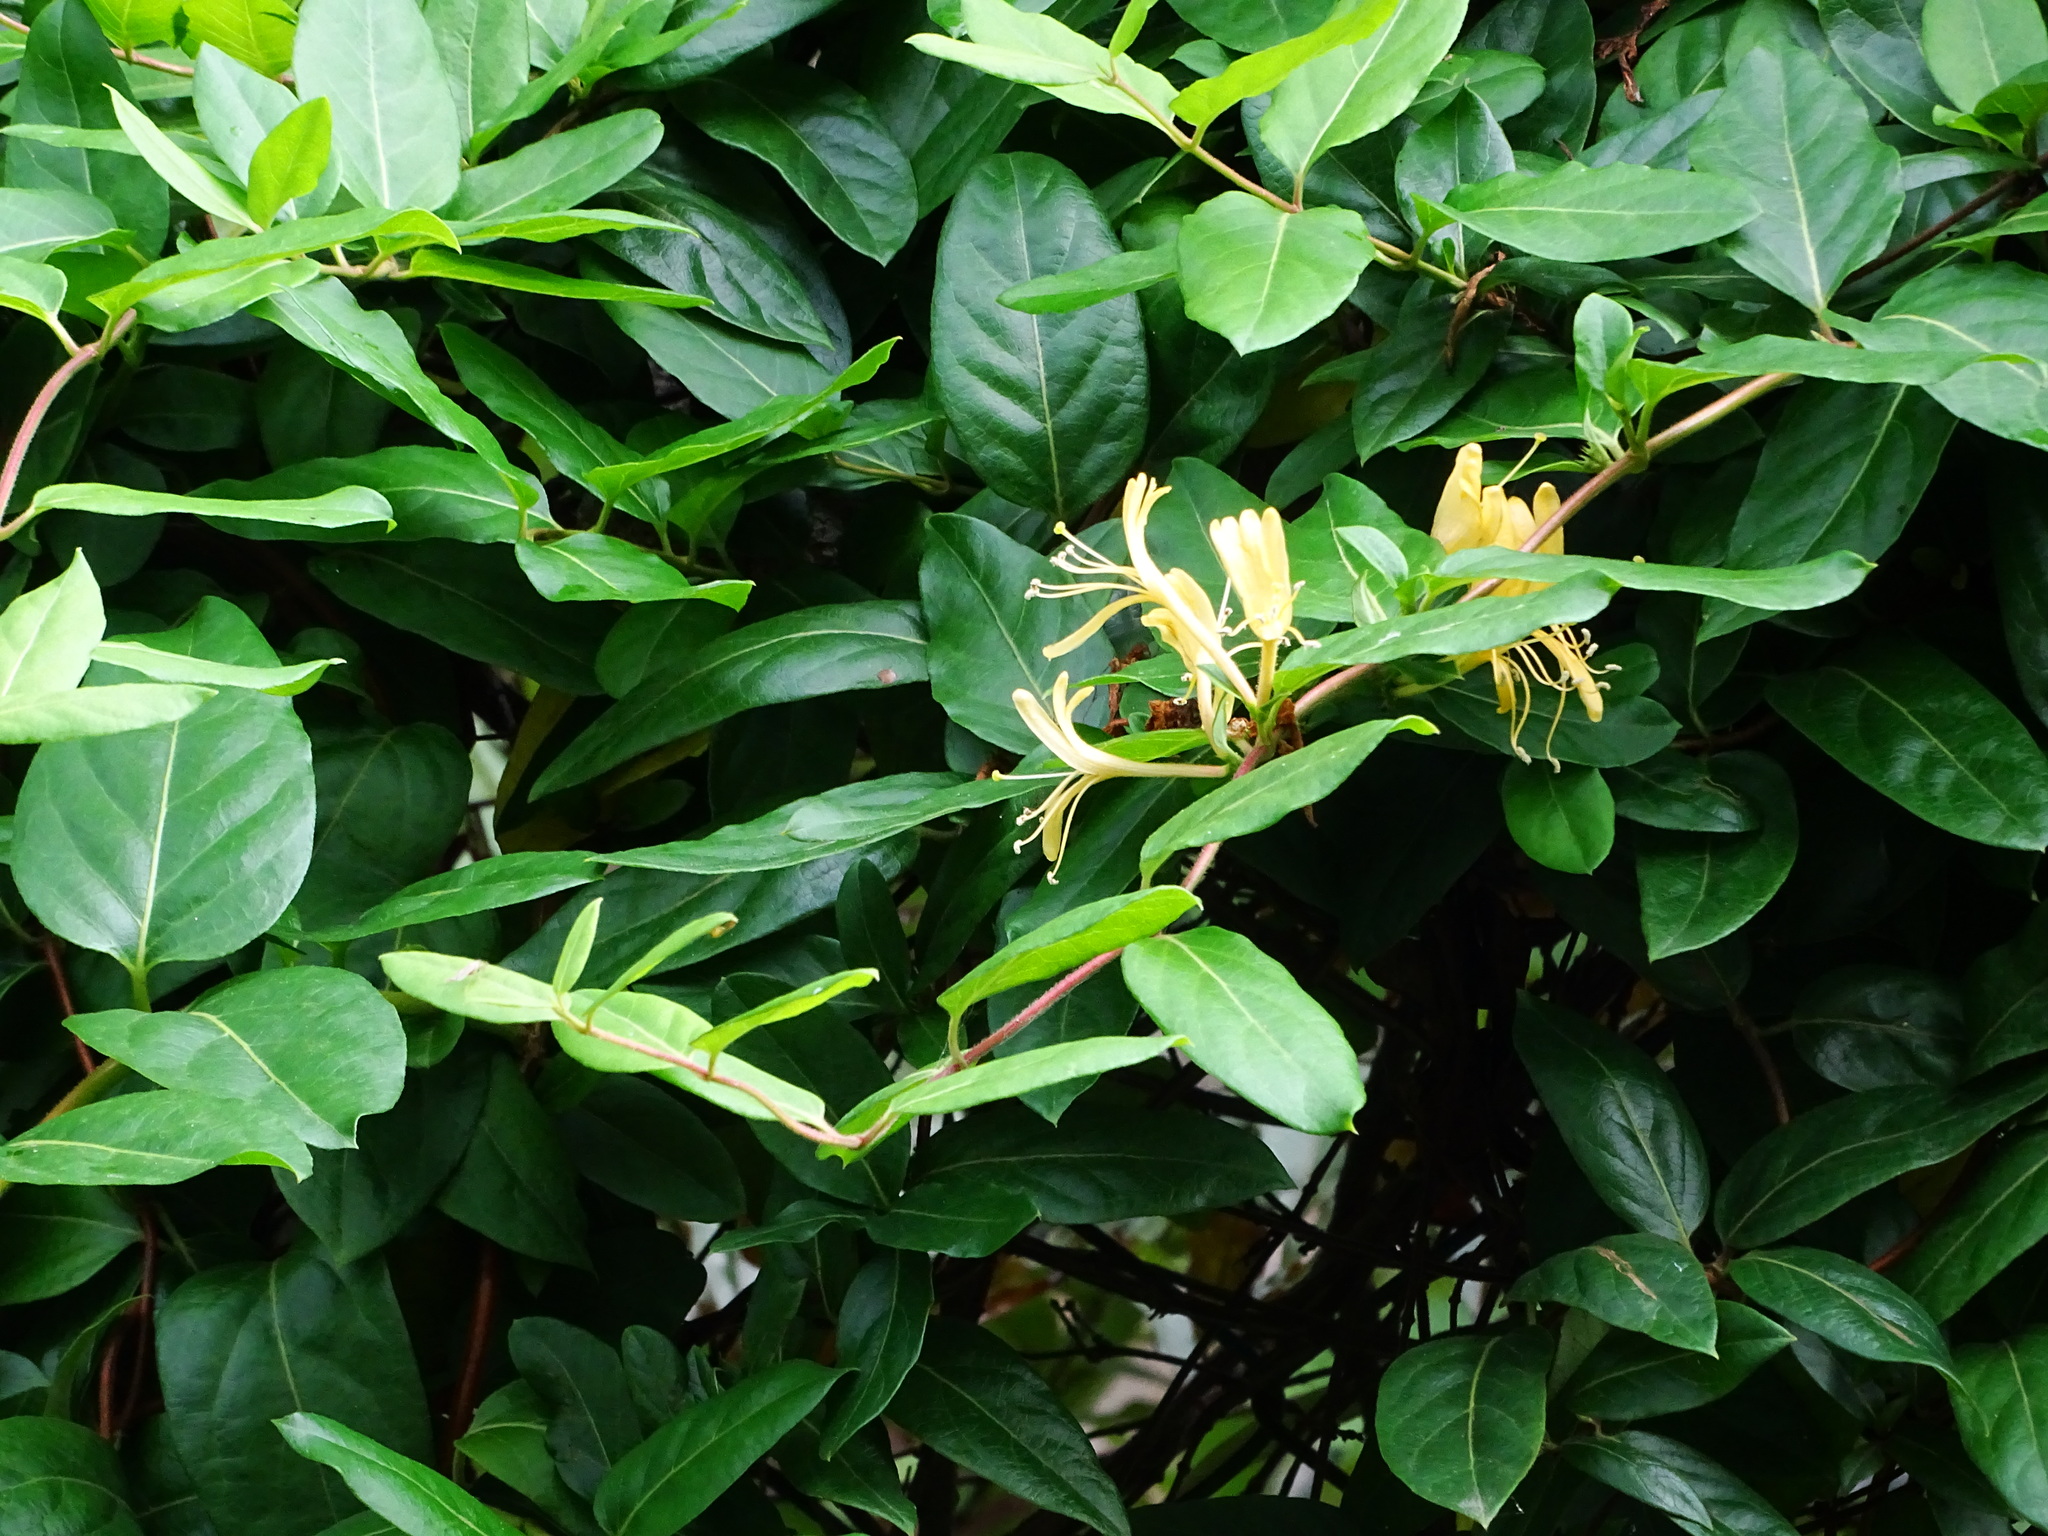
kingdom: Plantae
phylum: Tracheophyta
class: Magnoliopsida
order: Dipsacales
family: Caprifoliaceae
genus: Lonicera
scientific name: Lonicera japonica
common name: Japanese honeysuckle
